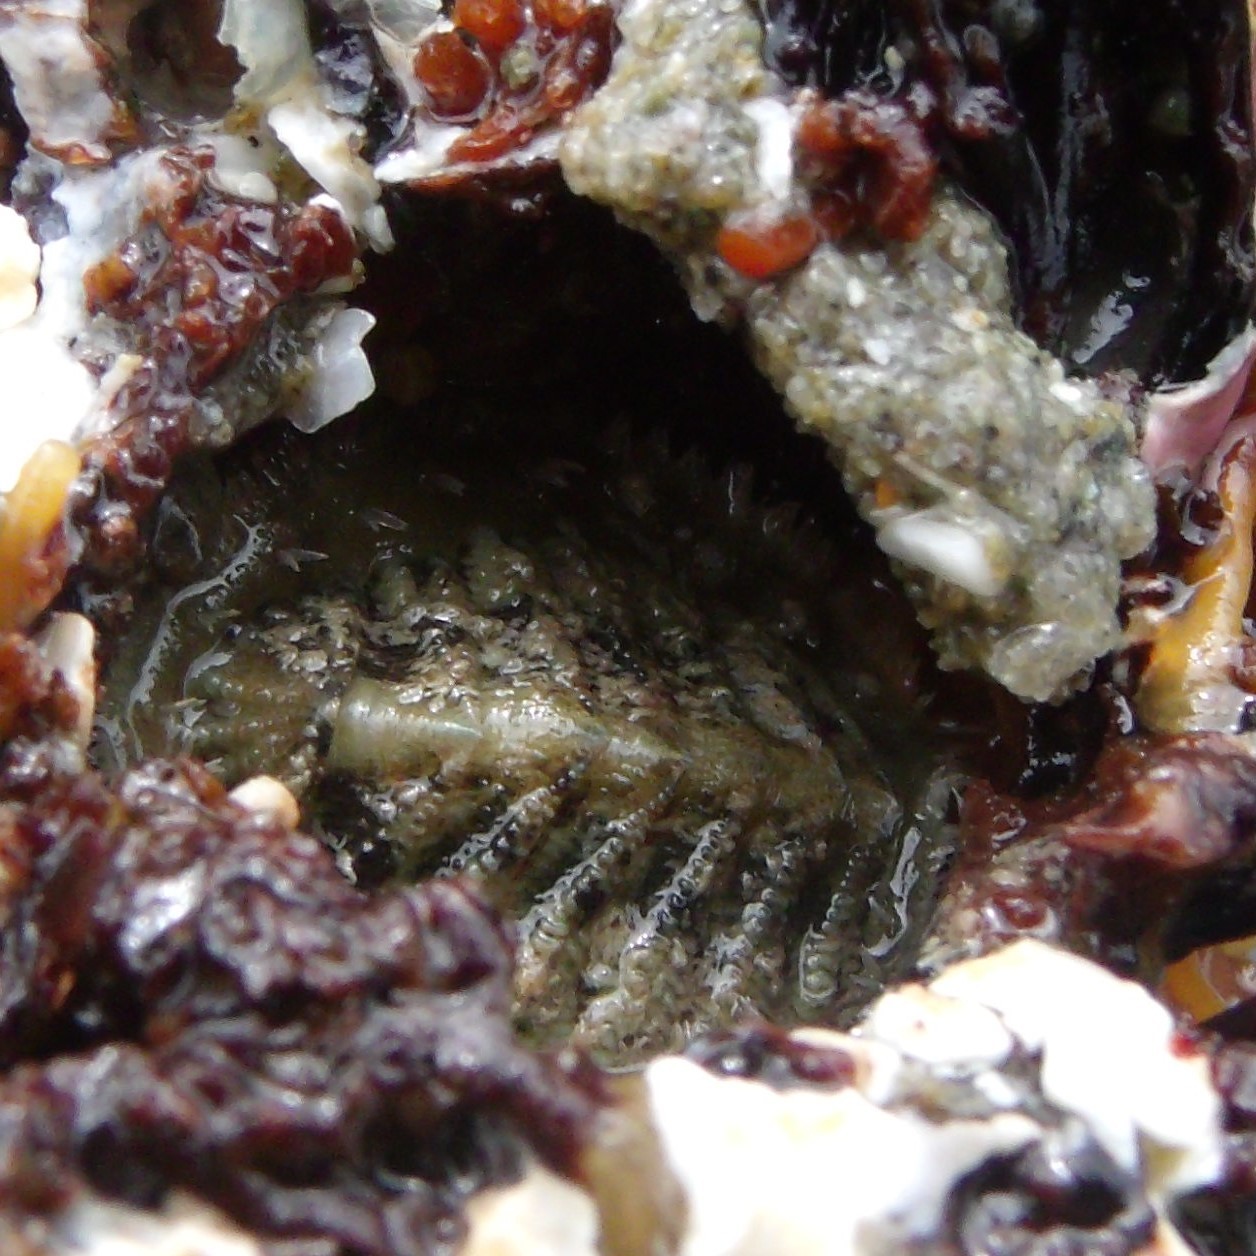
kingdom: Animalia
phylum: Mollusca
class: Polyplacophora
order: Chitonida
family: Mopaliidae
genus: Plaxiphora
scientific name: Plaxiphora egregia
